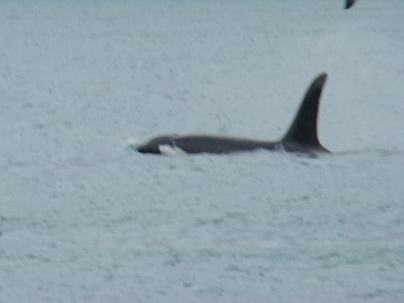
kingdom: Animalia
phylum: Chordata
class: Mammalia
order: Cetacea
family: Delphinidae
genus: Orcinus
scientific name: Orcinus orca
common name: Killer whale
